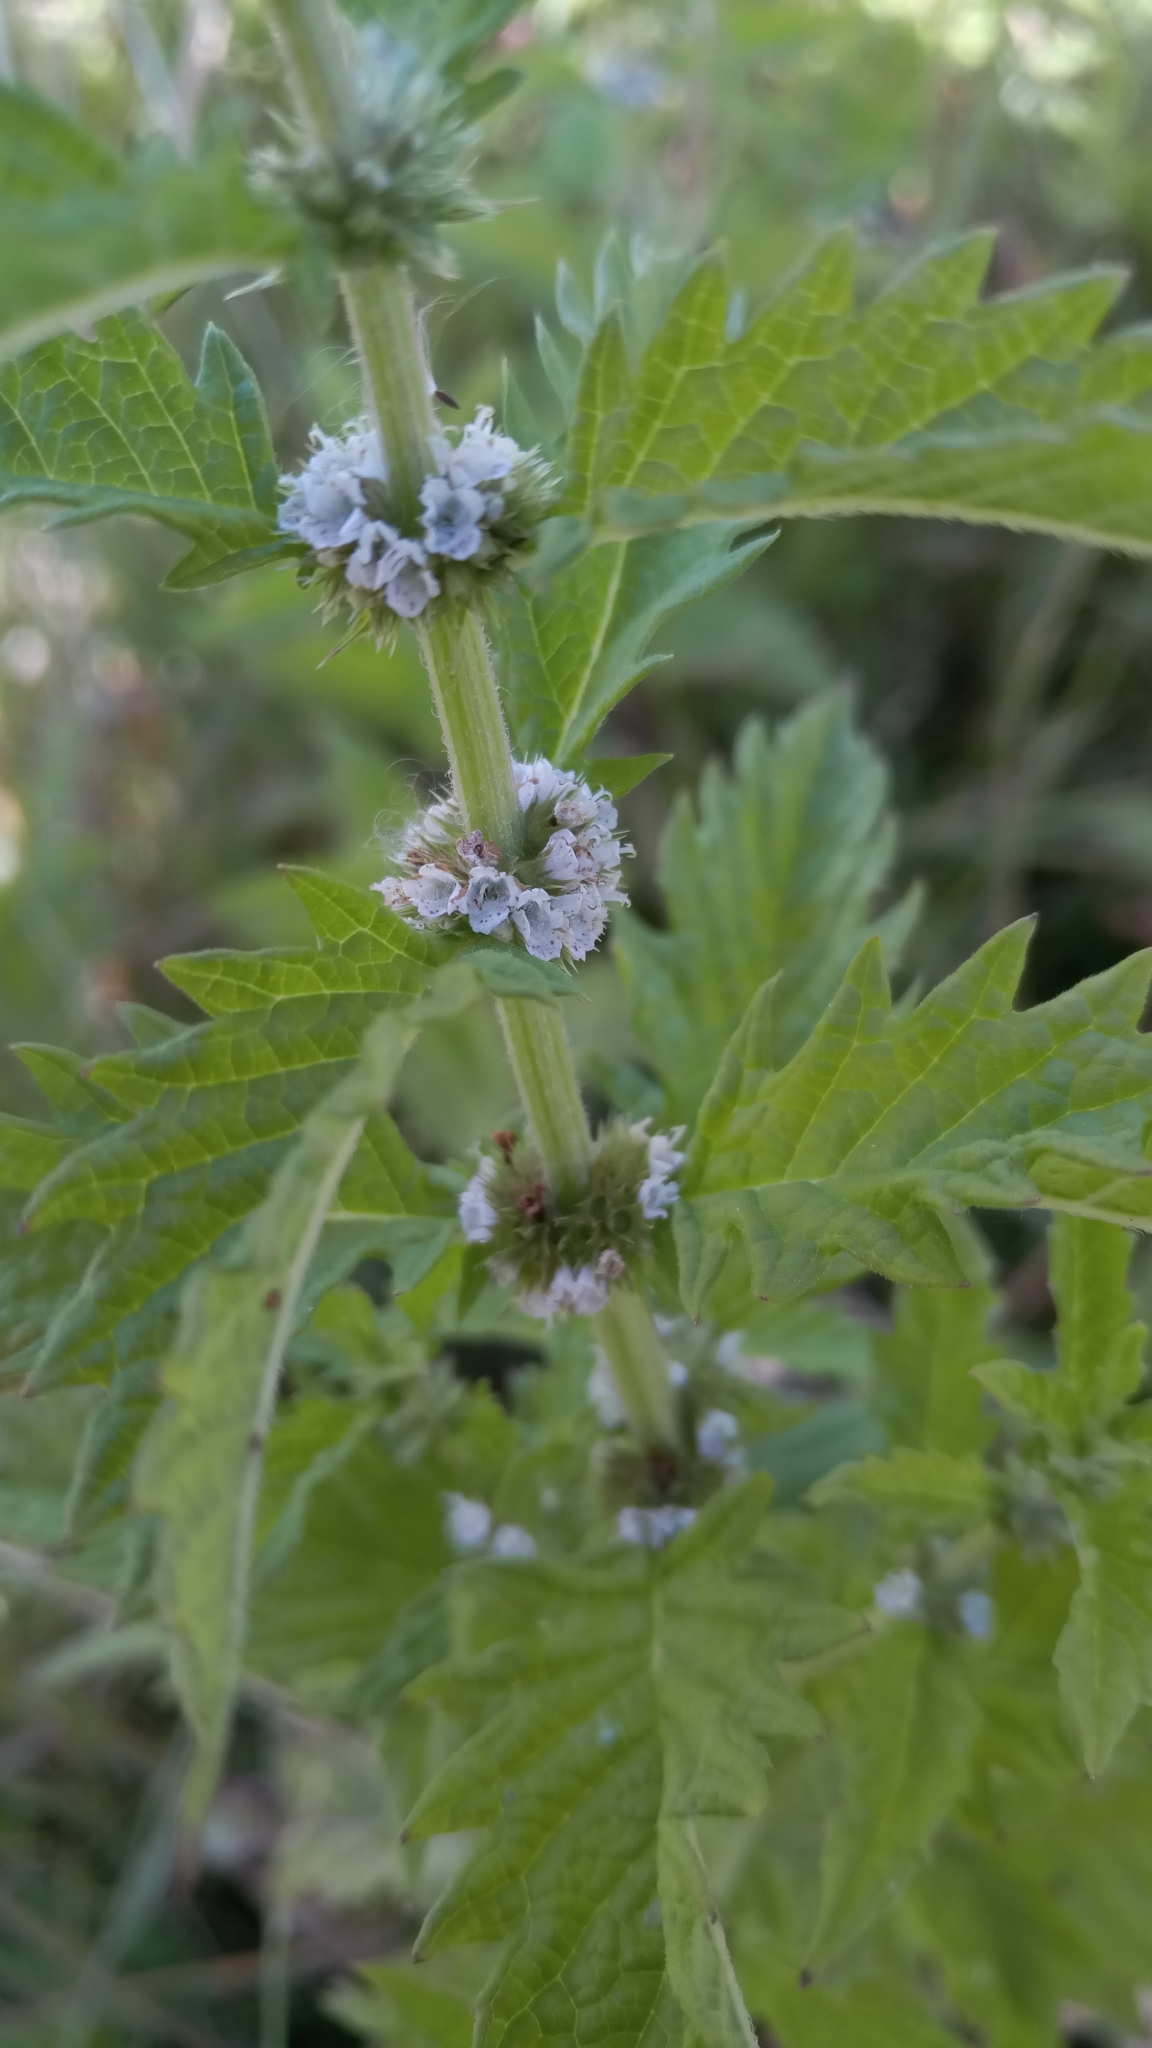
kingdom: Plantae
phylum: Tracheophyta
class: Magnoliopsida
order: Lamiales
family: Lamiaceae
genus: Lycopus
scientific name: Lycopus europaeus
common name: European bugleweed
